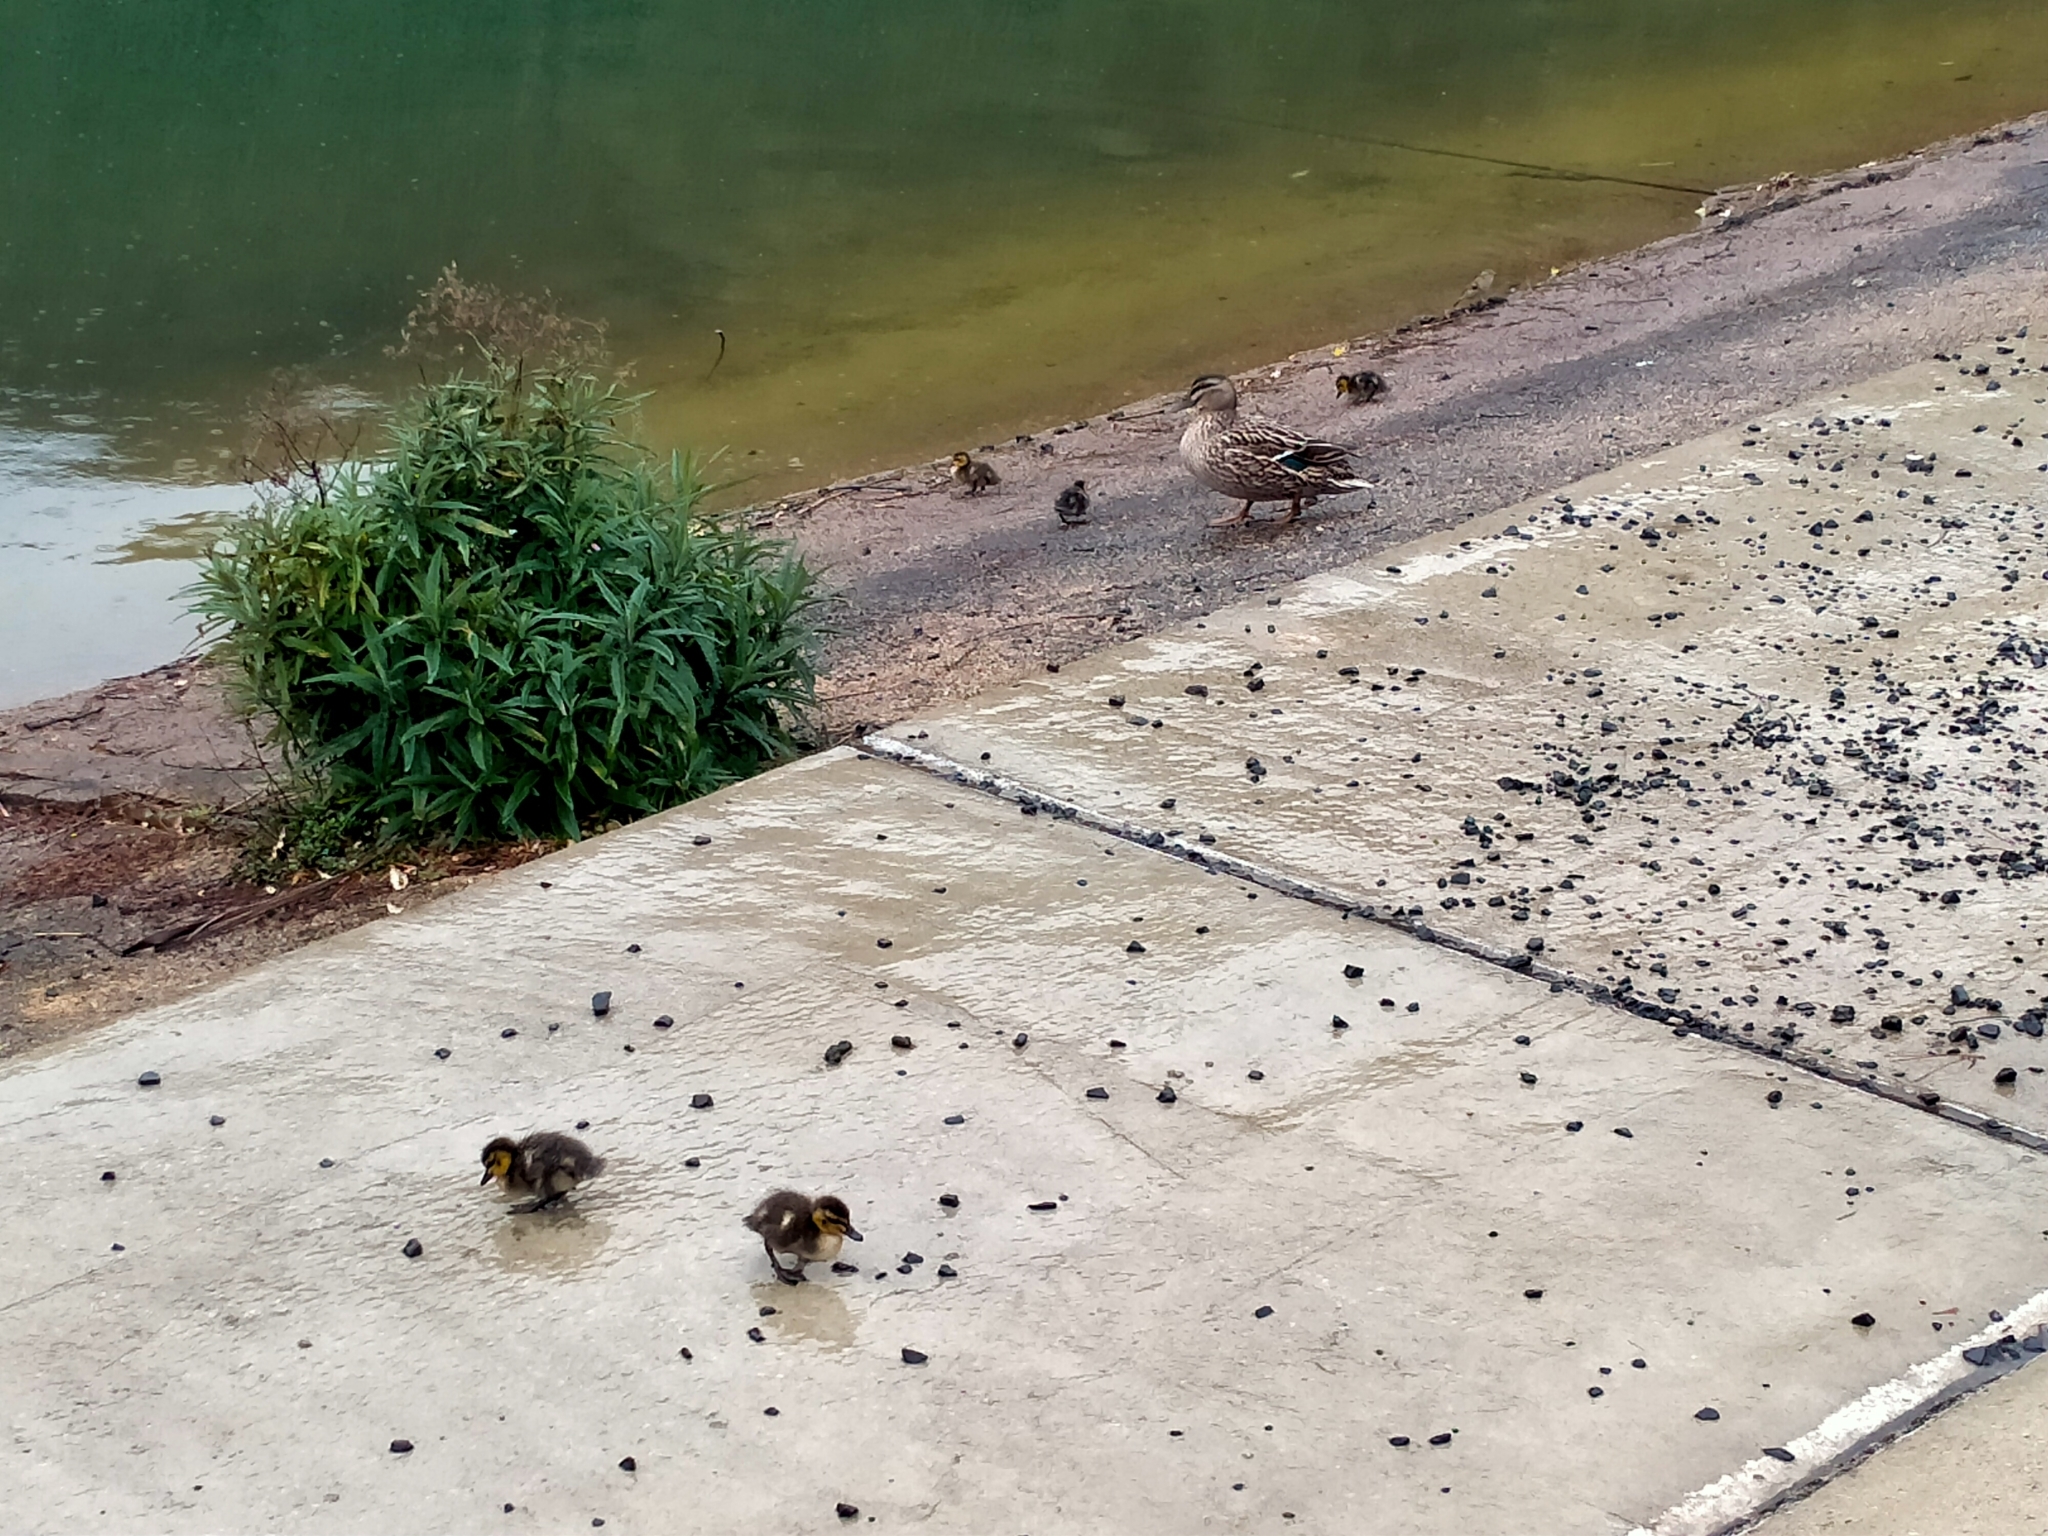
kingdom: Animalia
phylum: Chordata
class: Aves
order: Anseriformes
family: Anatidae
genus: Anas
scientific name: Anas
